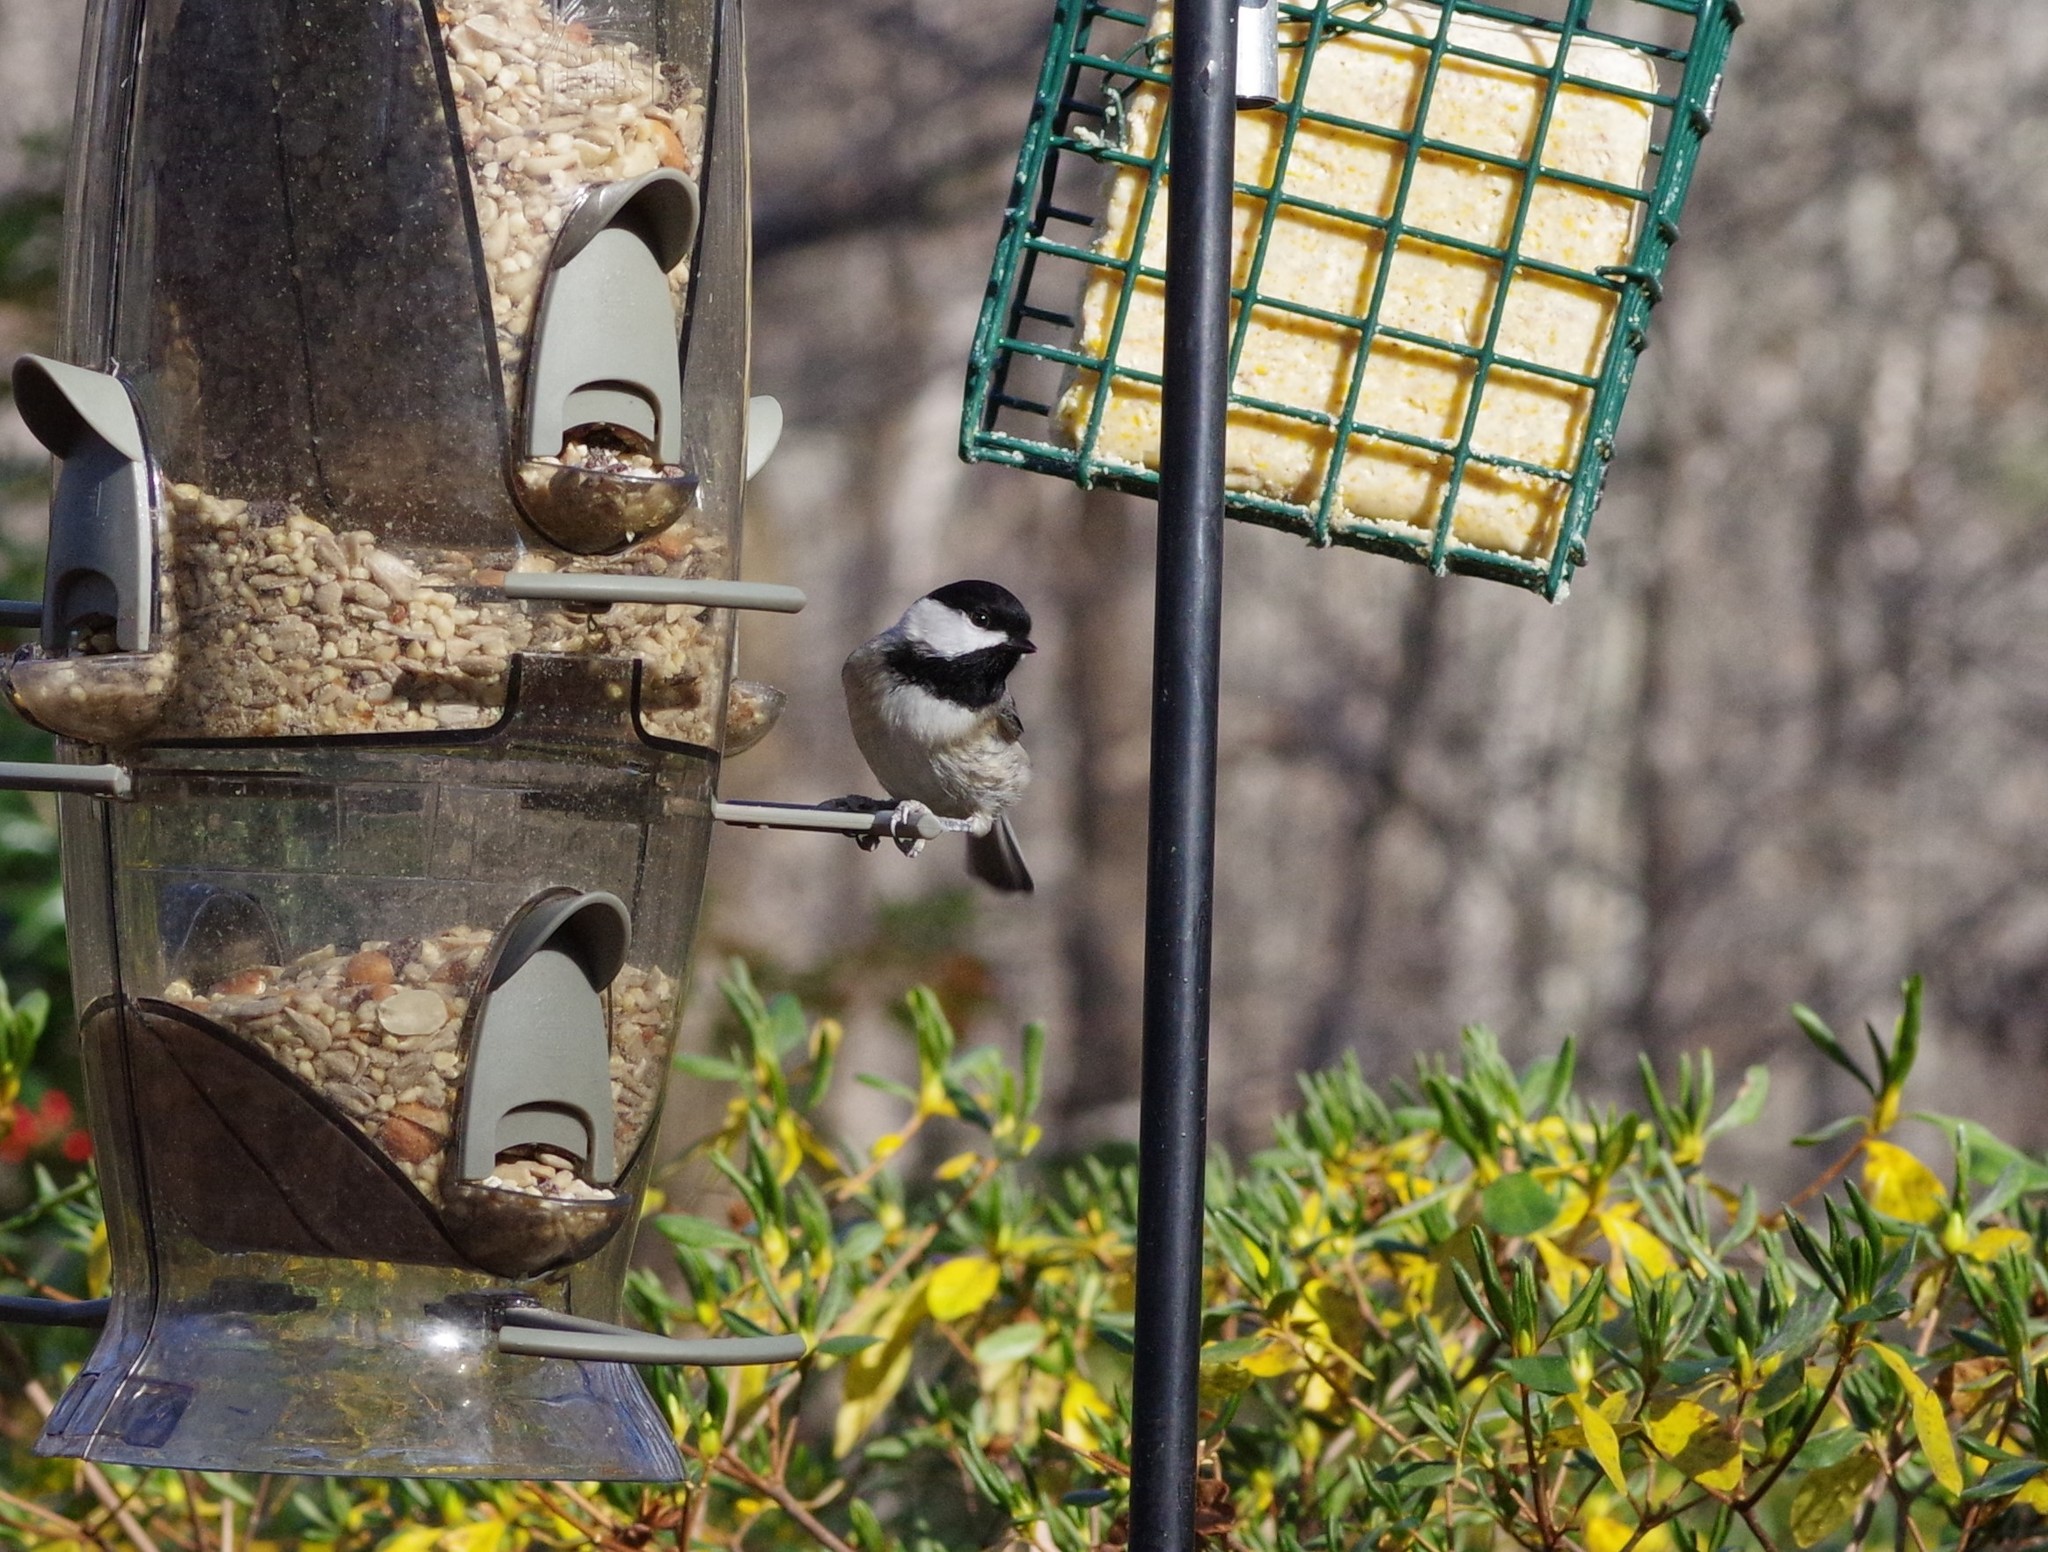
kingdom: Animalia
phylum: Chordata
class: Aves
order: Passeriformes
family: Paridae
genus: Poecile
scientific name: Poecile carolinensis
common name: Carolina chickadee
